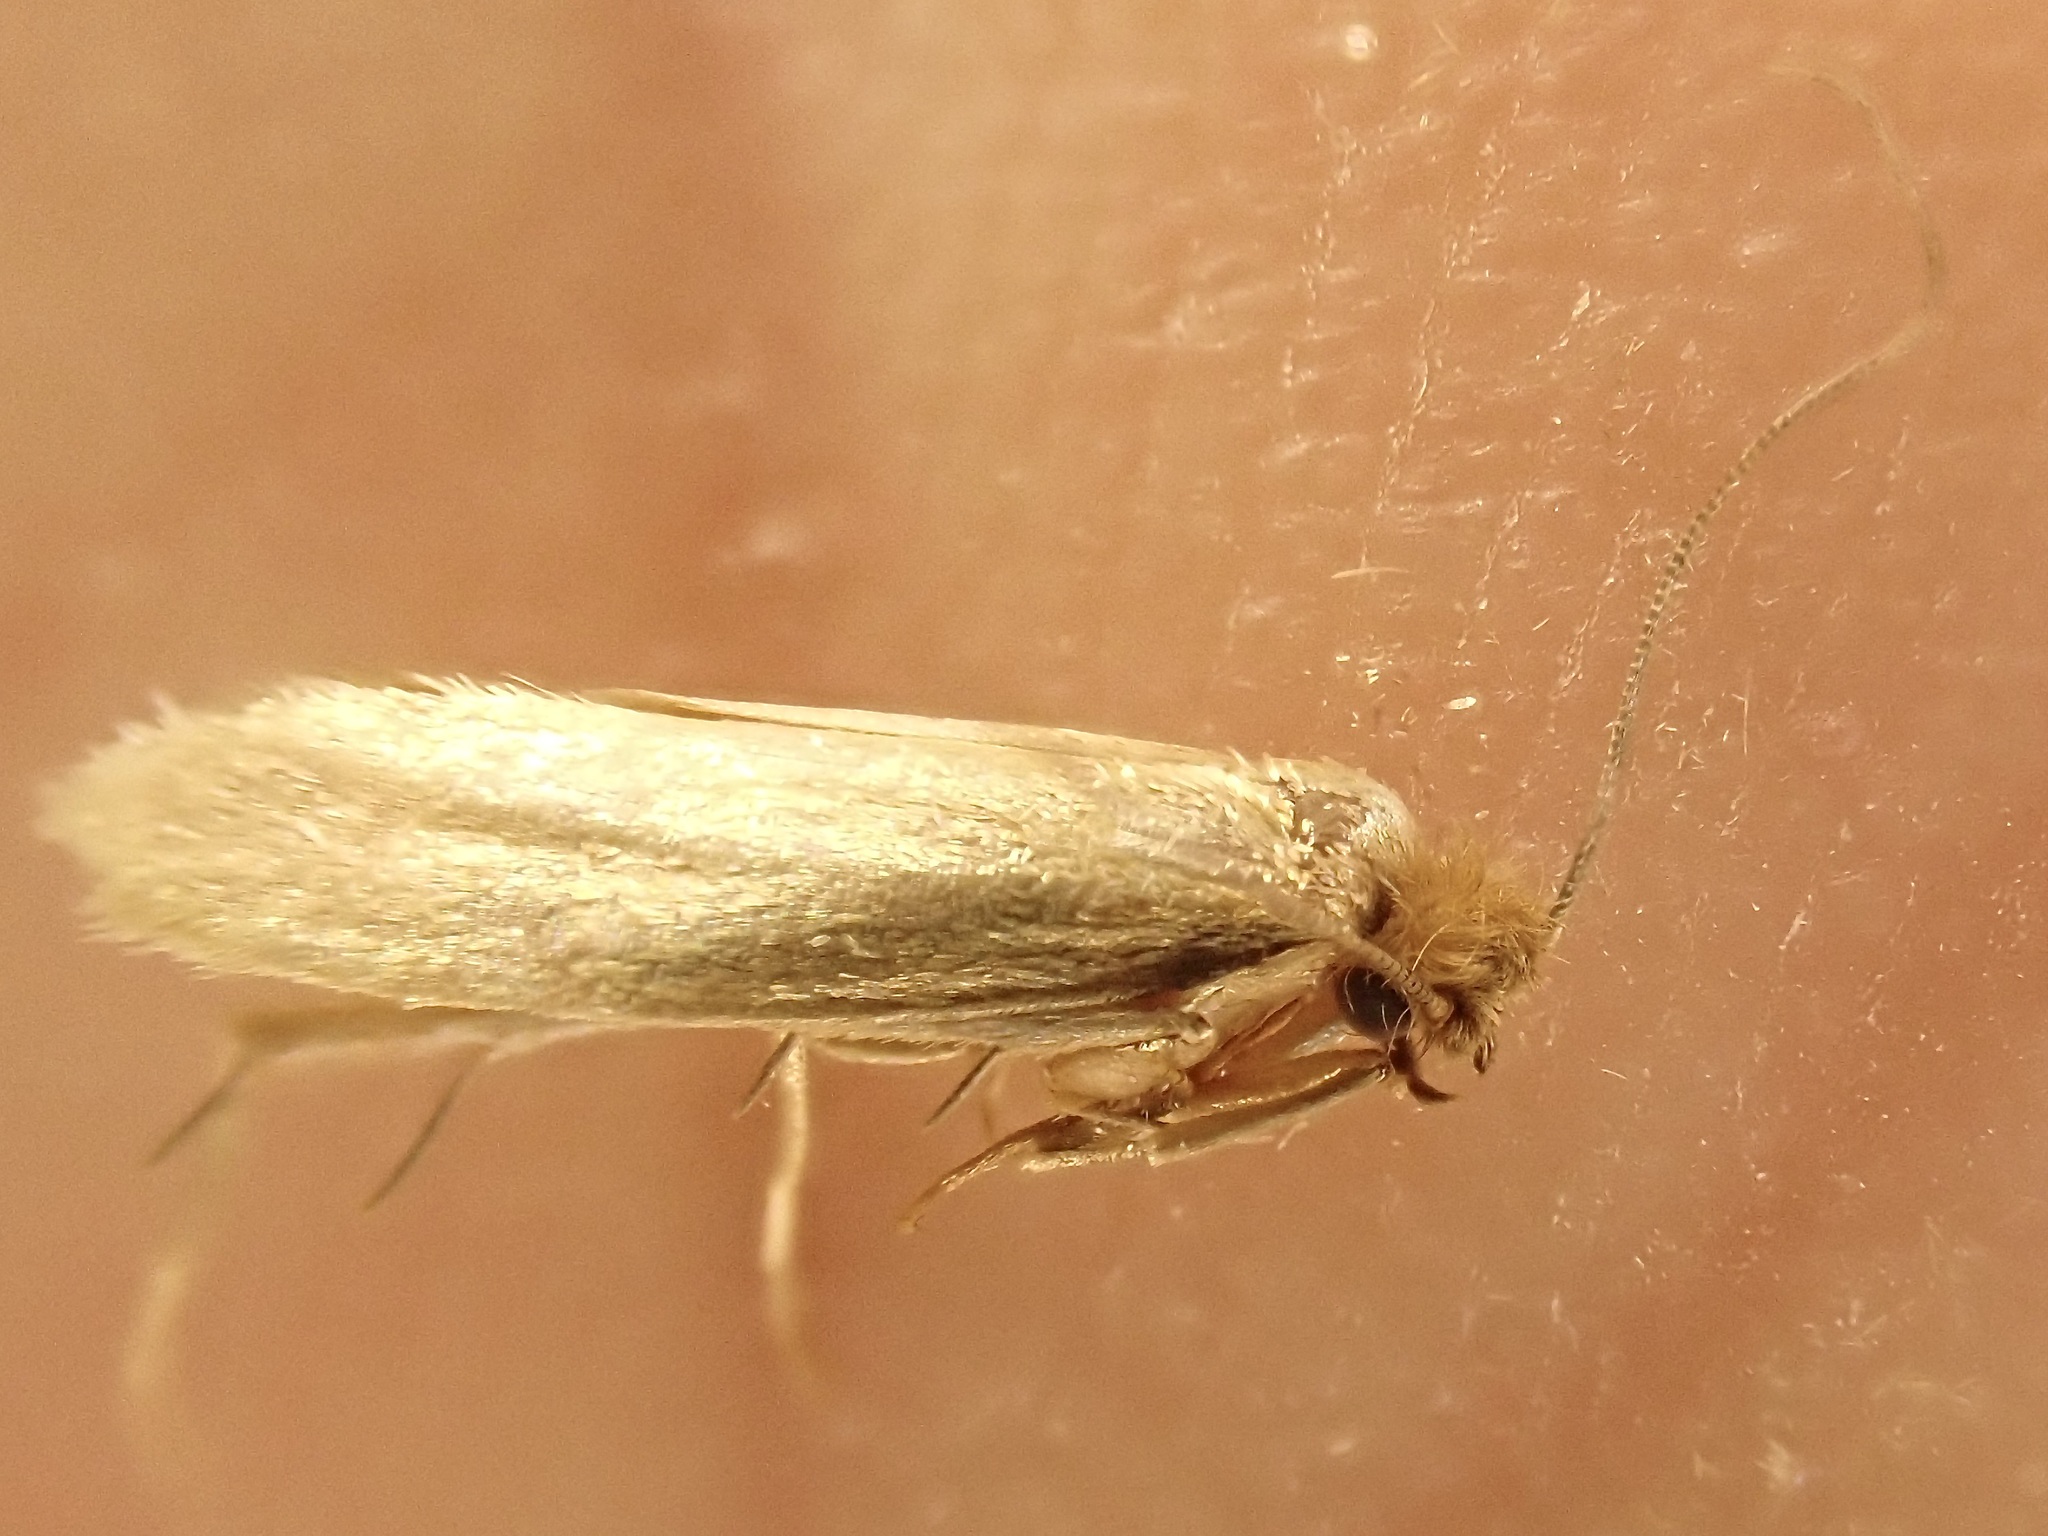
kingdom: Animalia
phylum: Arthropoda
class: Insecta
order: Lepidoptera
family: Tineidae
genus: Tineola
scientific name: Tineola bisselliella
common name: Webbing clothes moth
